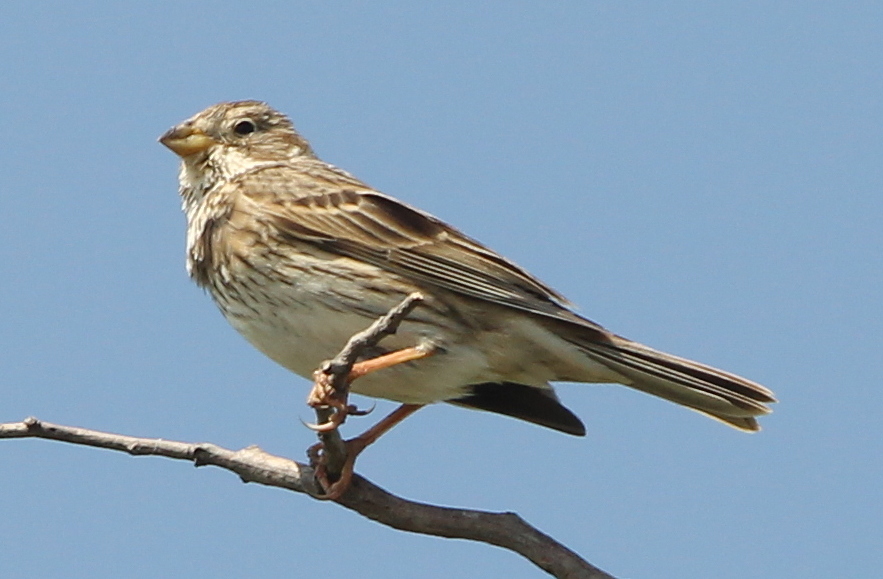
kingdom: Animalia
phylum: Chordata
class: Aves
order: Passeriformes
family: Emberizidae
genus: Emberiza
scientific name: Emberiza calandra
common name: Corn bunting
